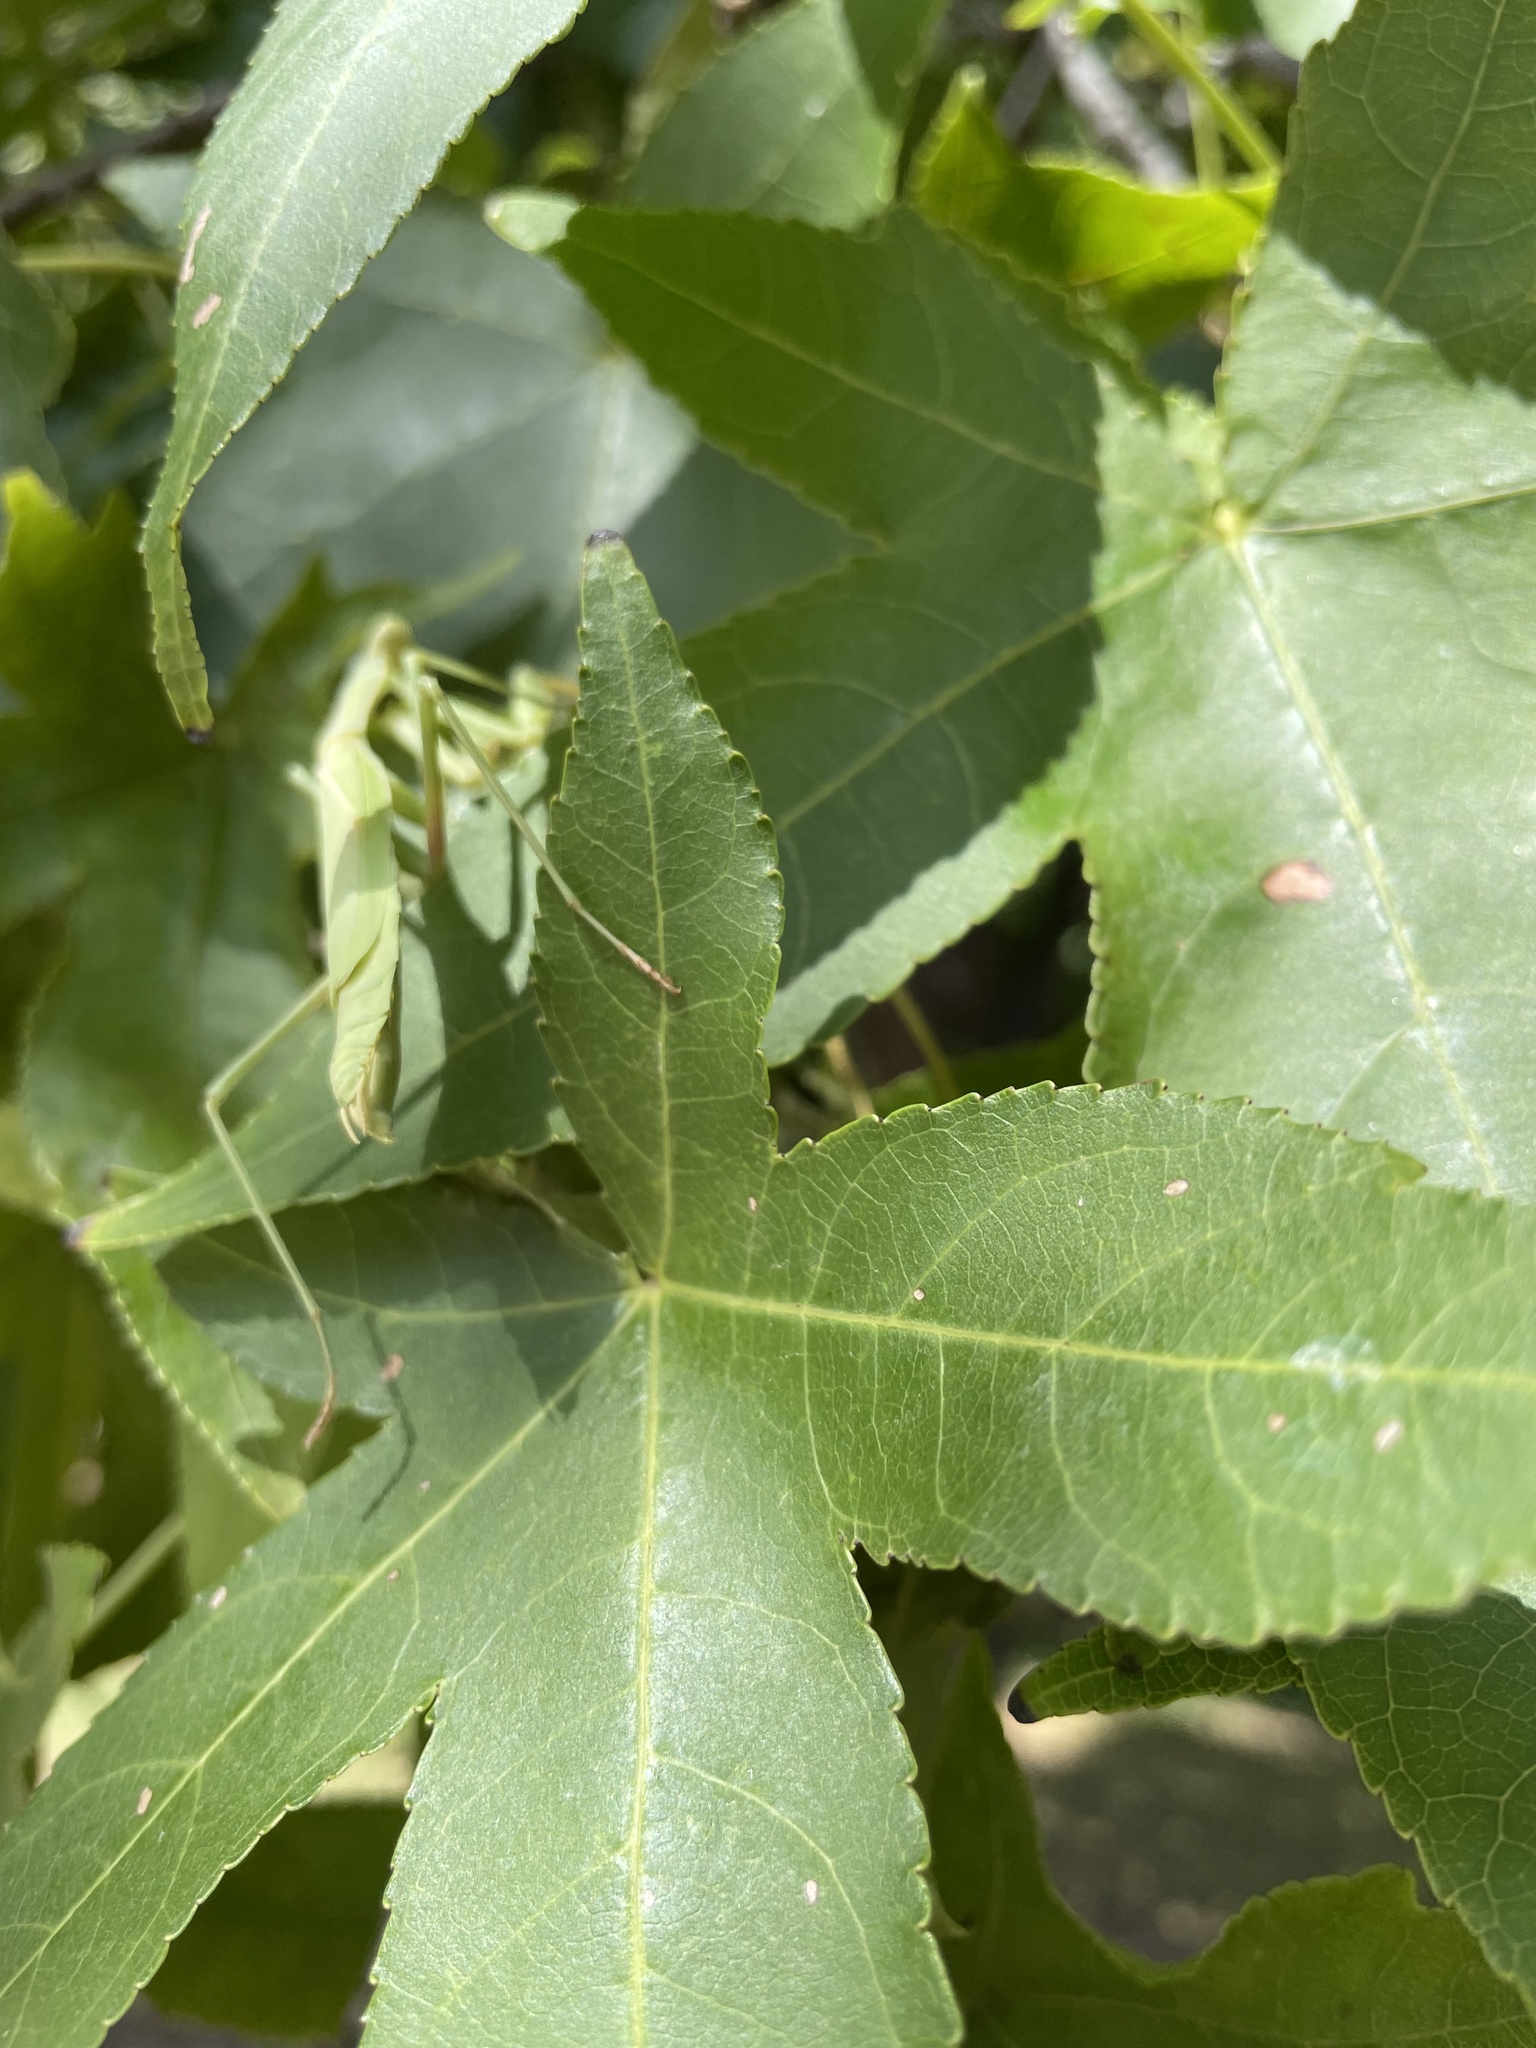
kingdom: Animalia
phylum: Arthropoda
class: Insecta
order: Mantodea
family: Mantidae
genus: Stagmomantis
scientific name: Stagmomantis carolina
